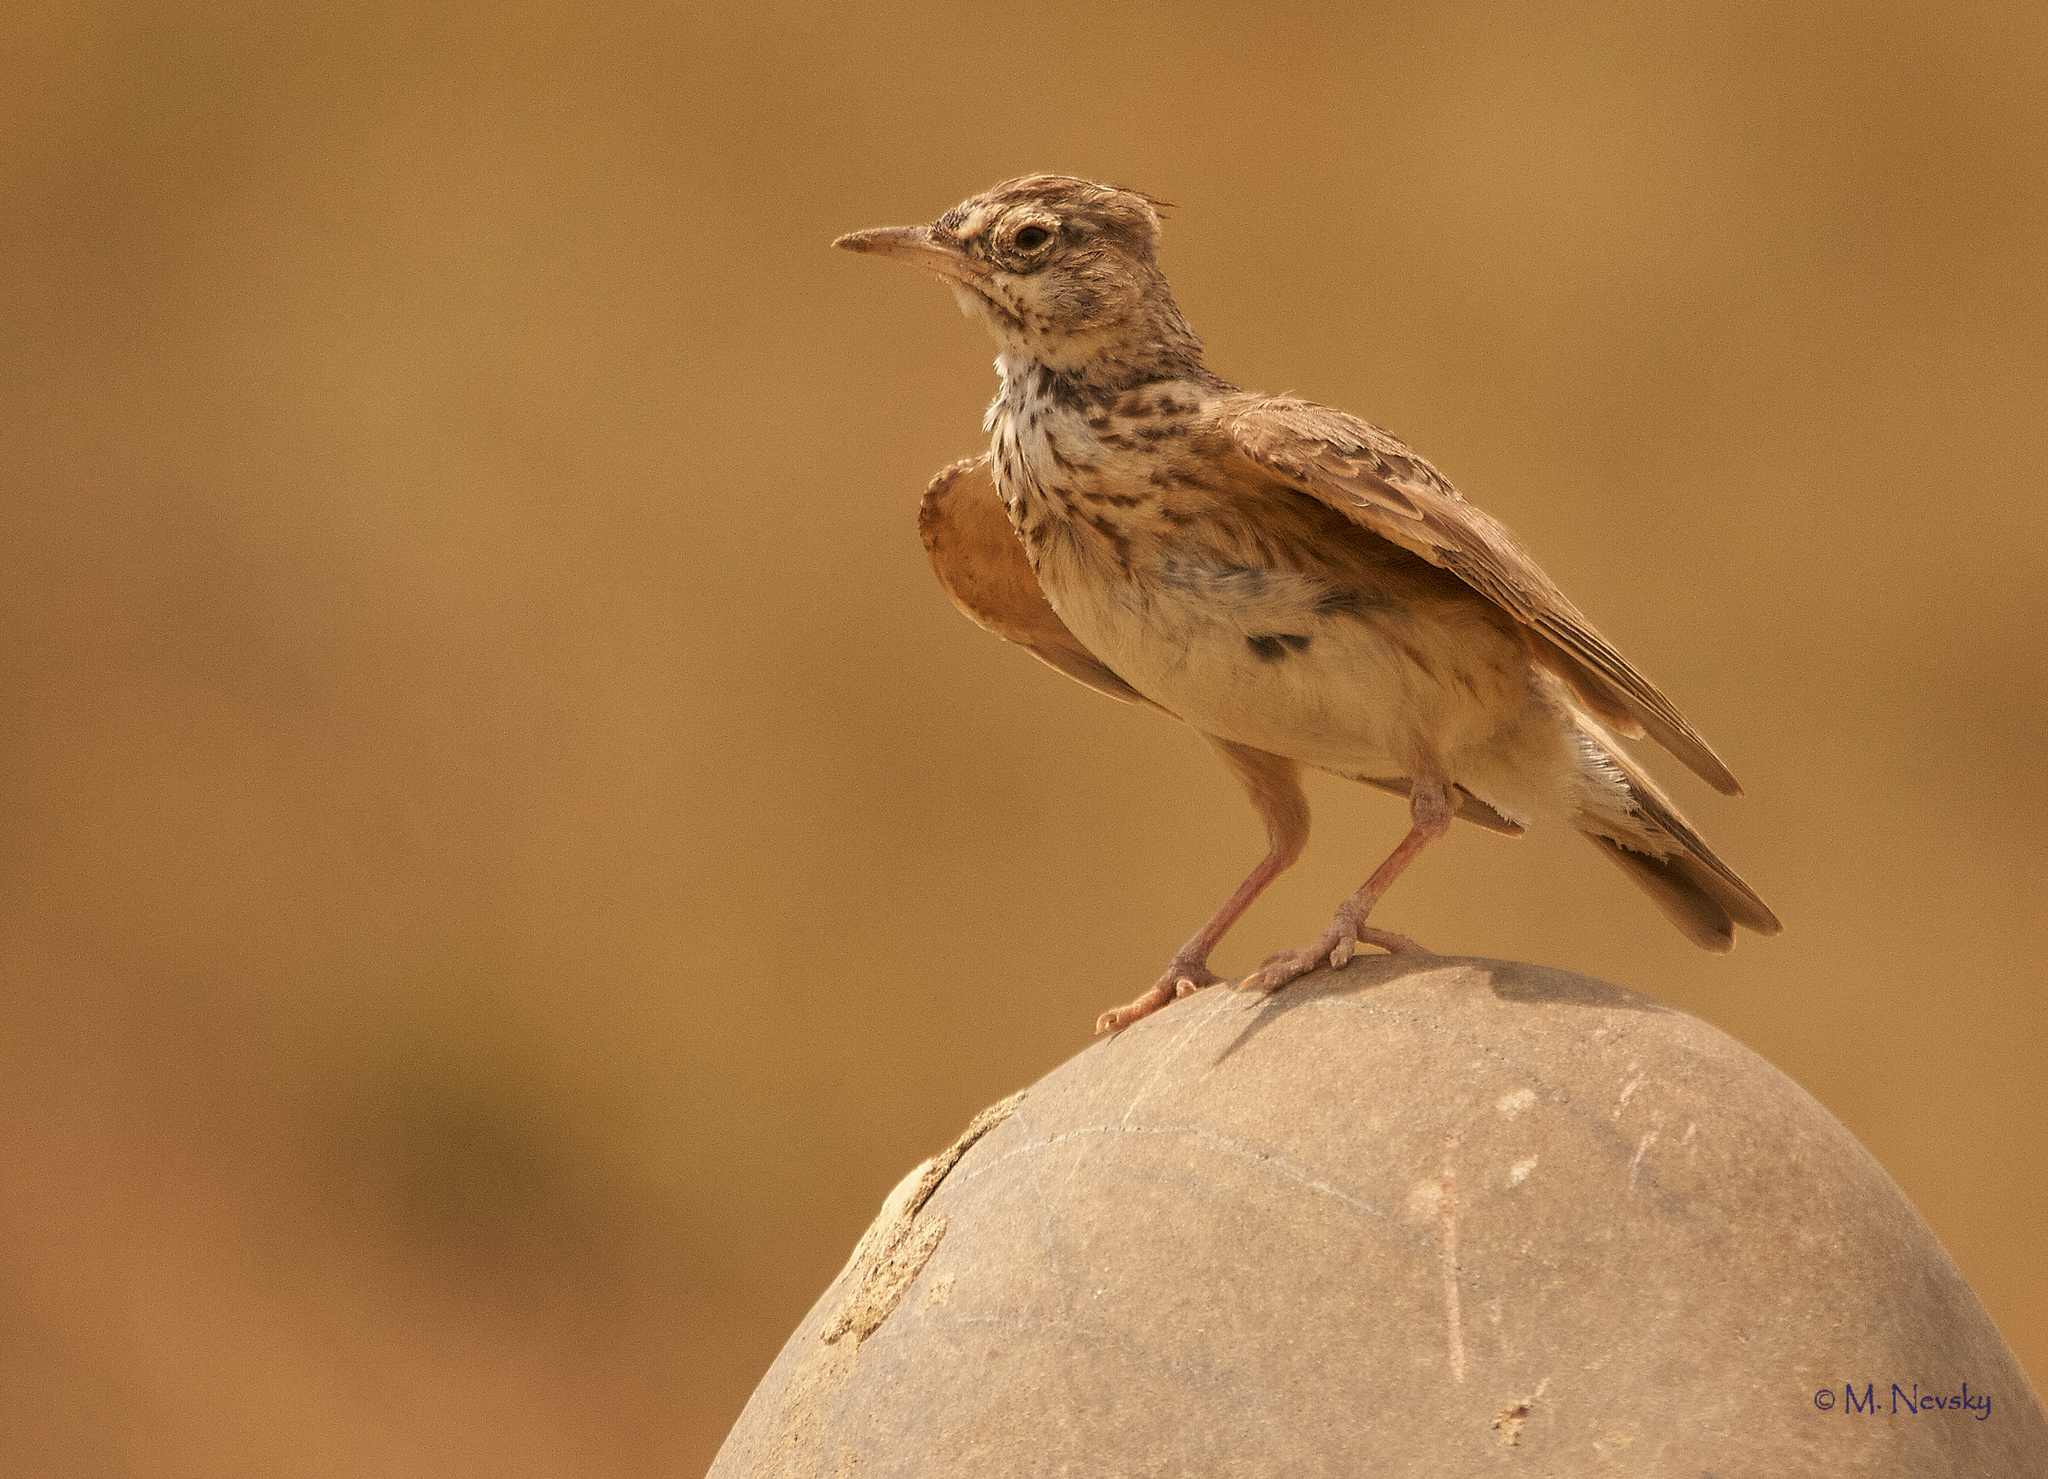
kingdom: Animalia
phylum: Chordata
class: Aves
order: Passeriformes
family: Alaudidae
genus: Galerida
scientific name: Galerida cristata
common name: Crested lark
